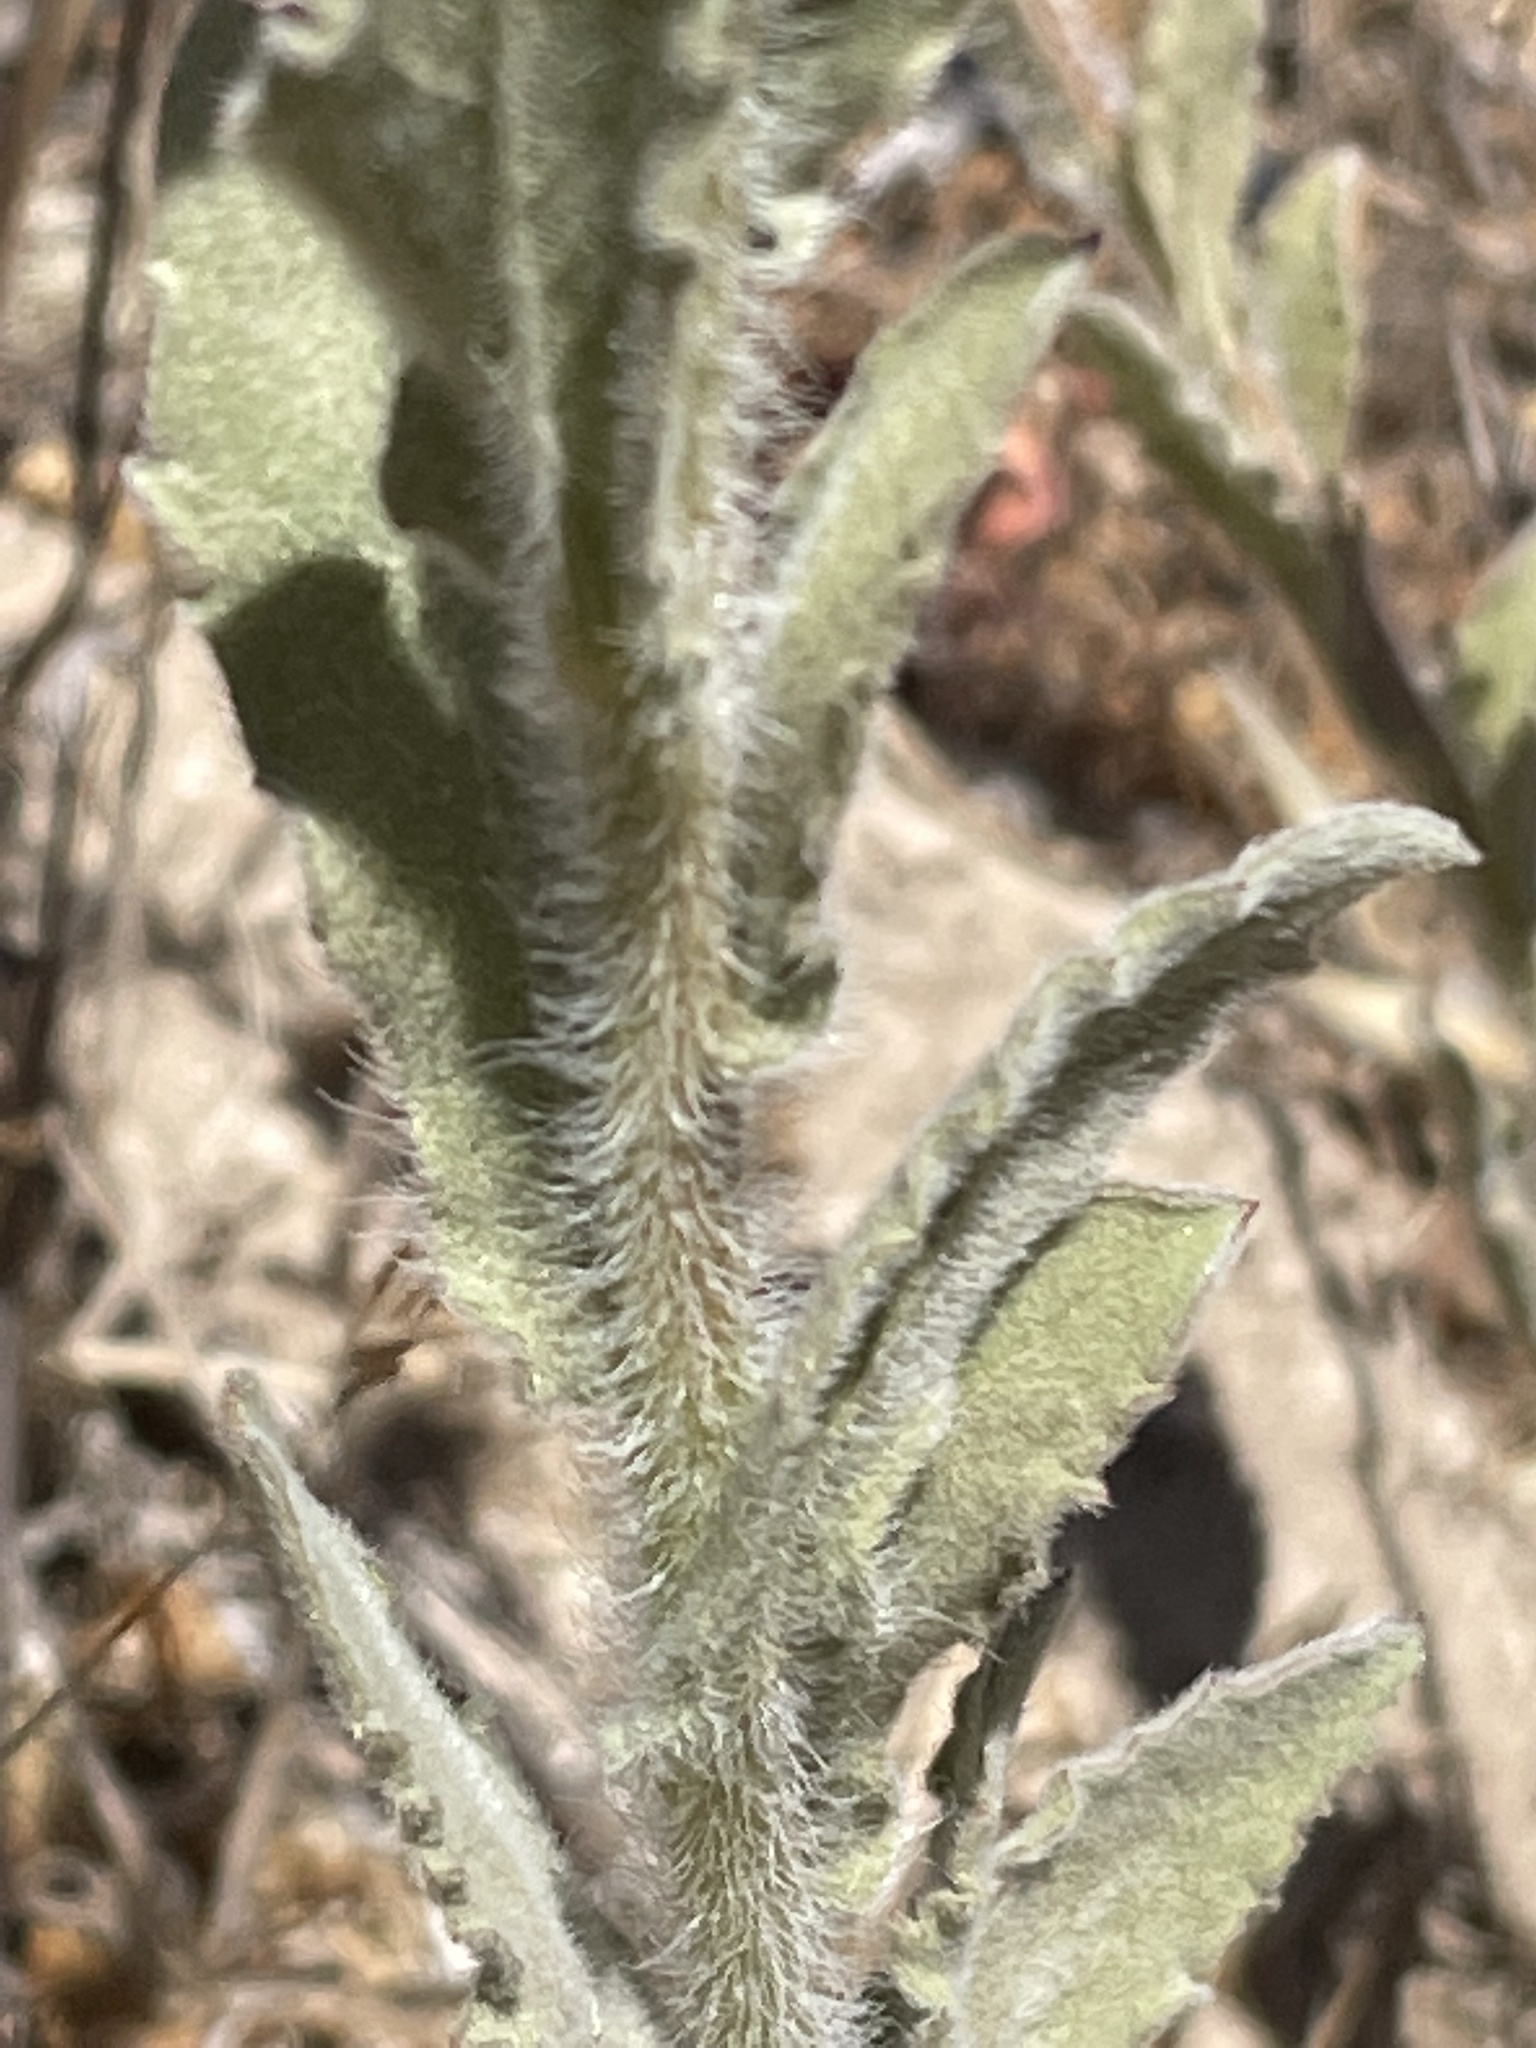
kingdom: Plantae
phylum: Tracheophyta
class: Magnoliopsida
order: Asterales
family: Asteraceae
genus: Heterotheca
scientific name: Heterotheca grandiflora
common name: Telegraphweed
